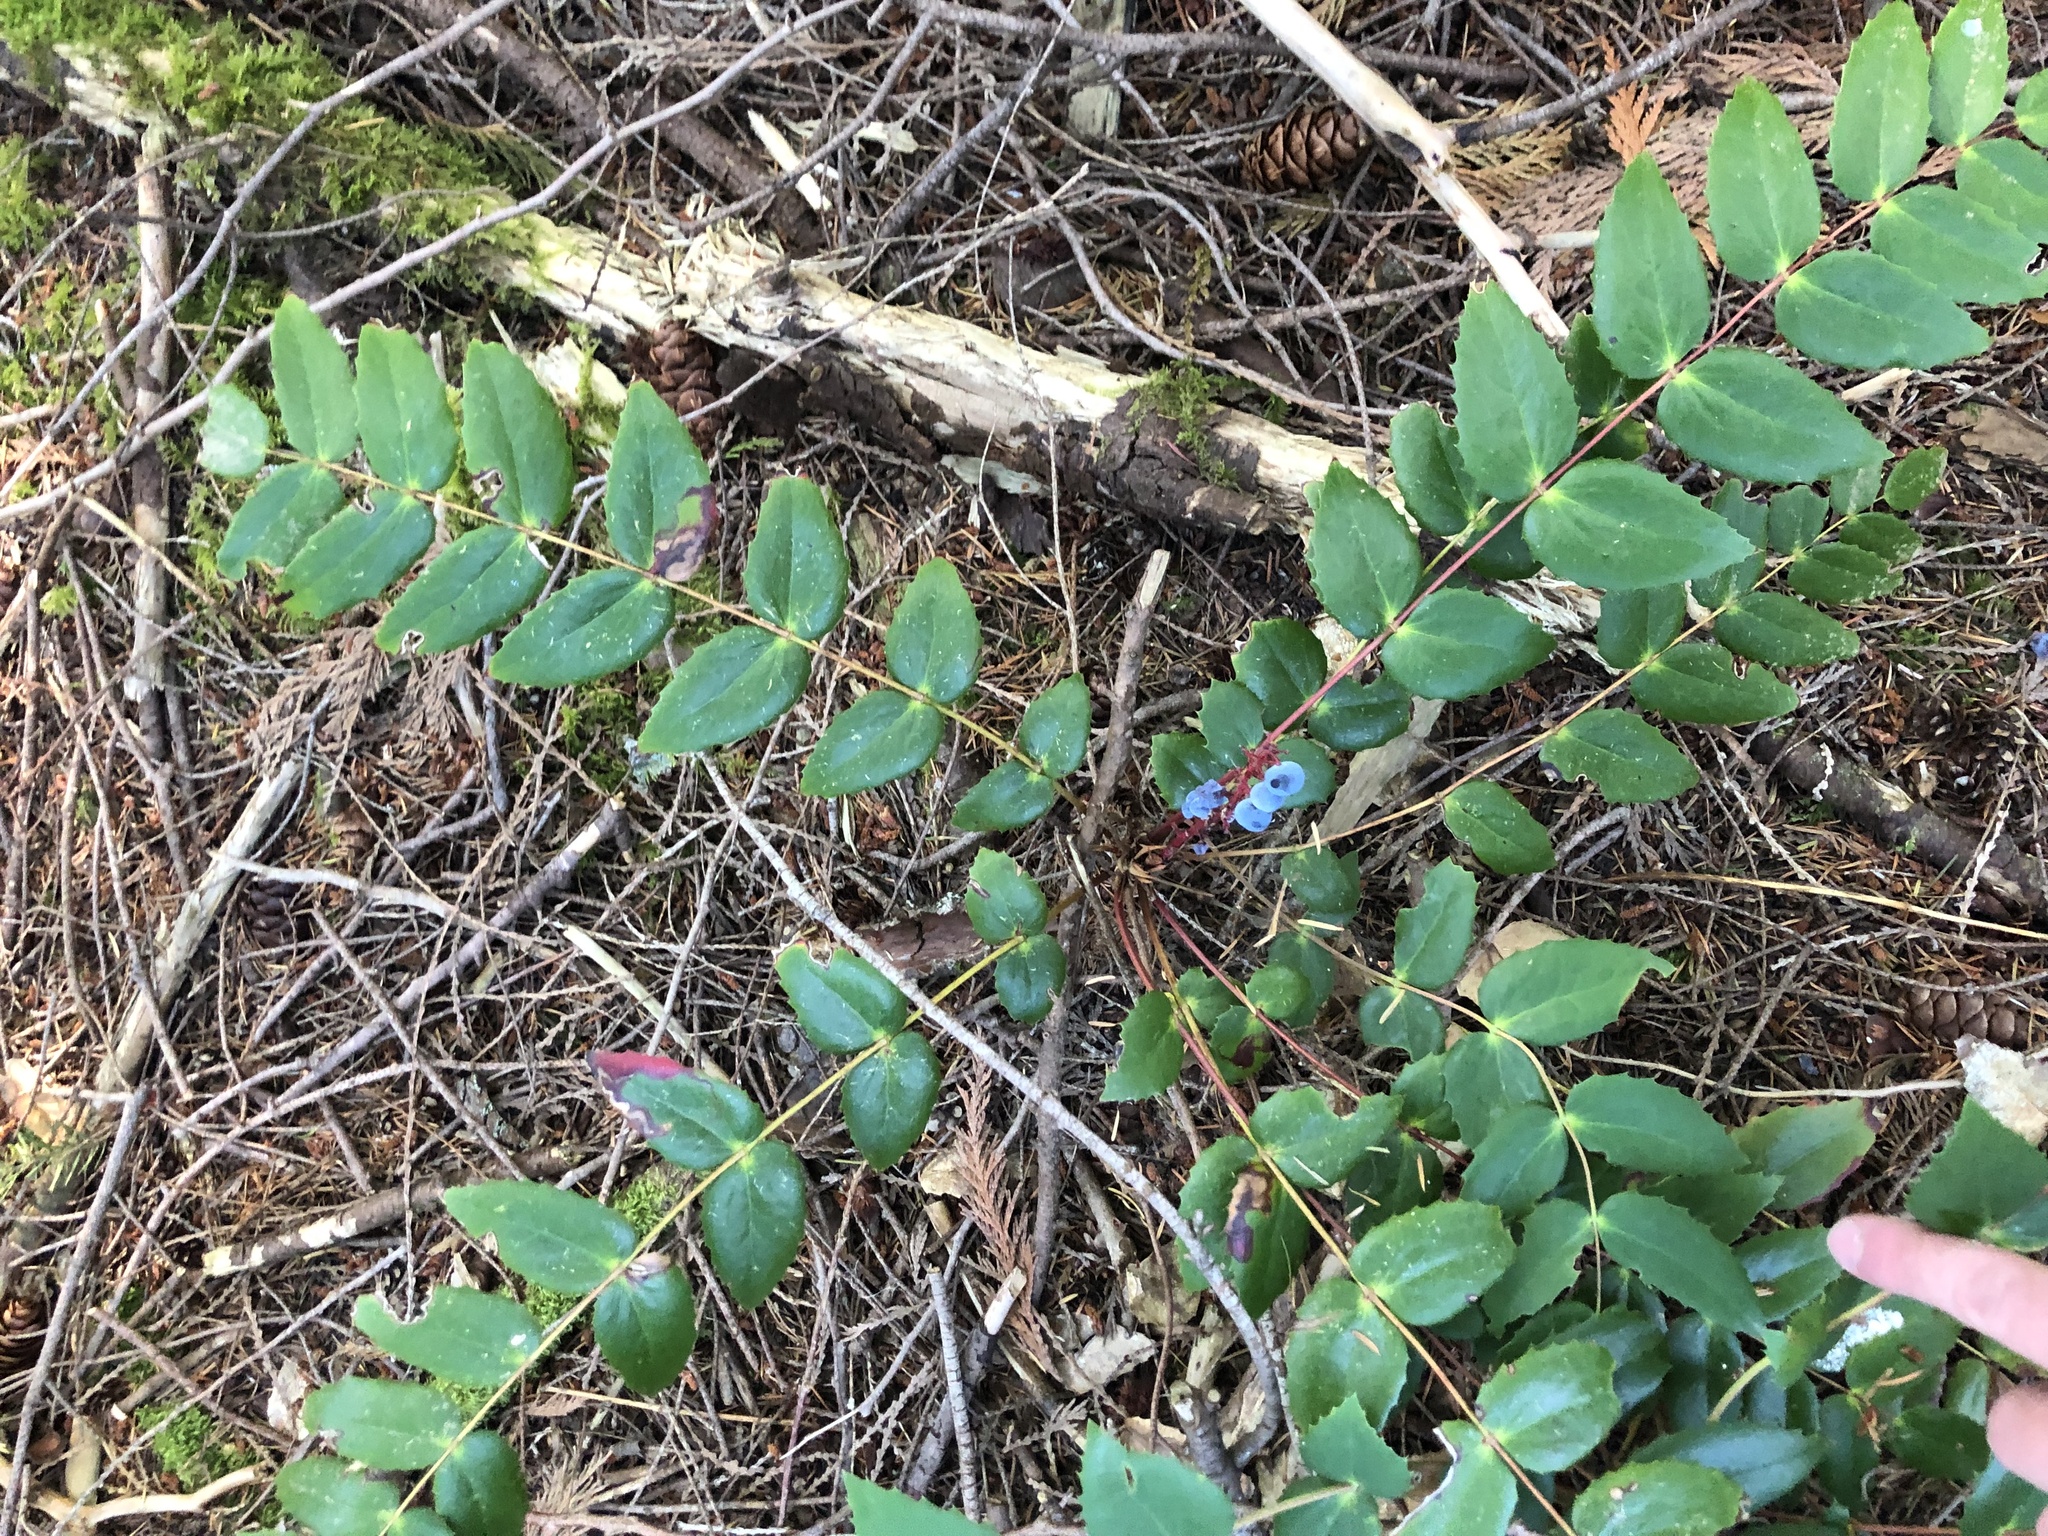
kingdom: Plantae
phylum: Tracheophyta
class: Magnoliopsida
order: Ranunculales
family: Berberidaceae
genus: Mahonia
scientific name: Mahonia nervosa
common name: Cascade oregon-grape
